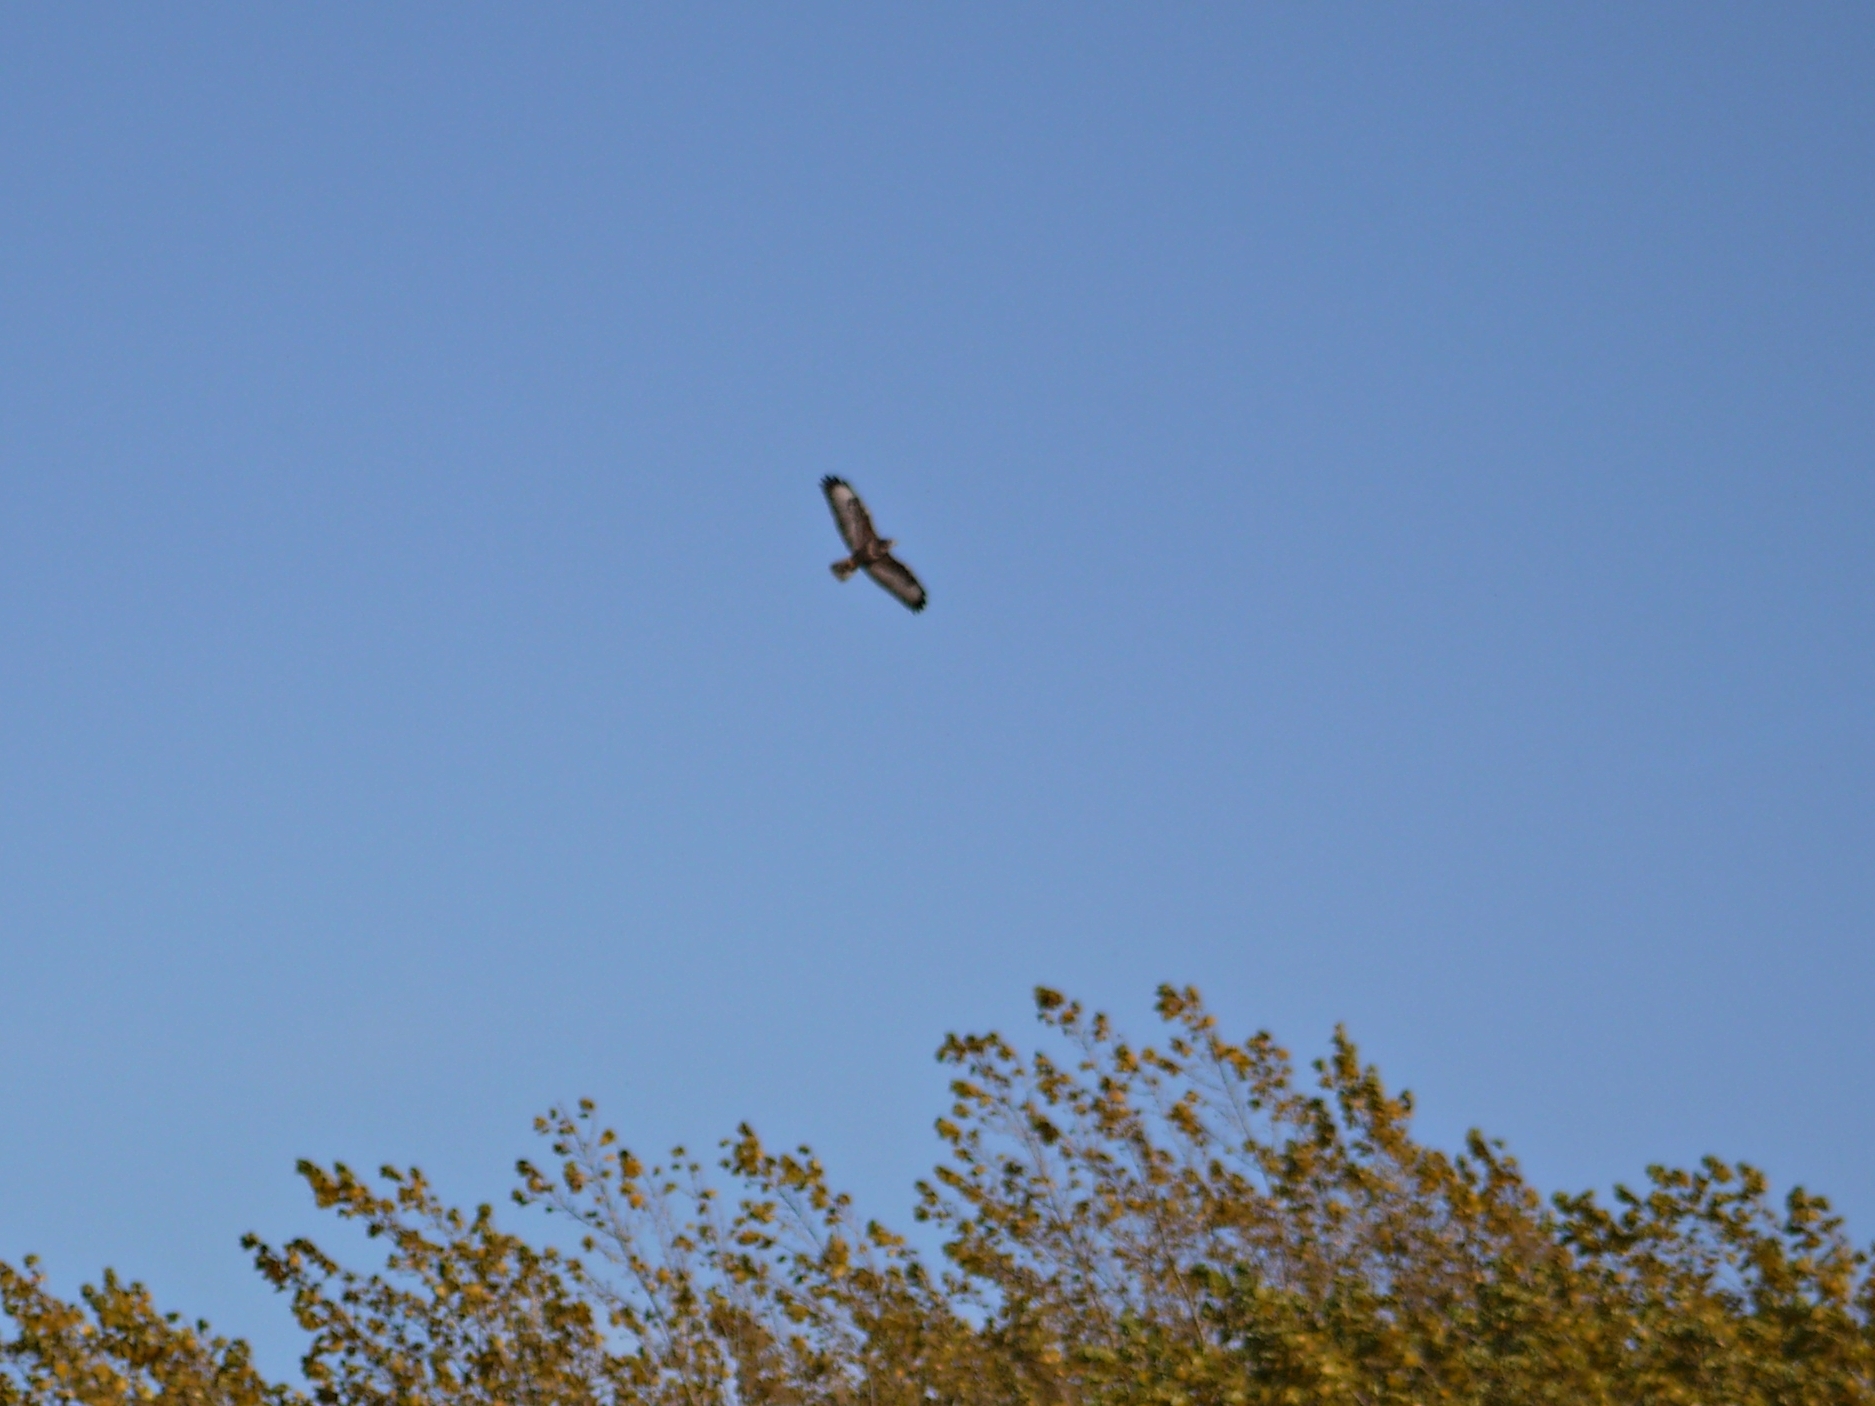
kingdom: Animalia
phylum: Chordata
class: Aves
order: Accipitriformes
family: Accipitridae
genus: Buteo
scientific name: Buteo buteo
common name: Common buzzard
